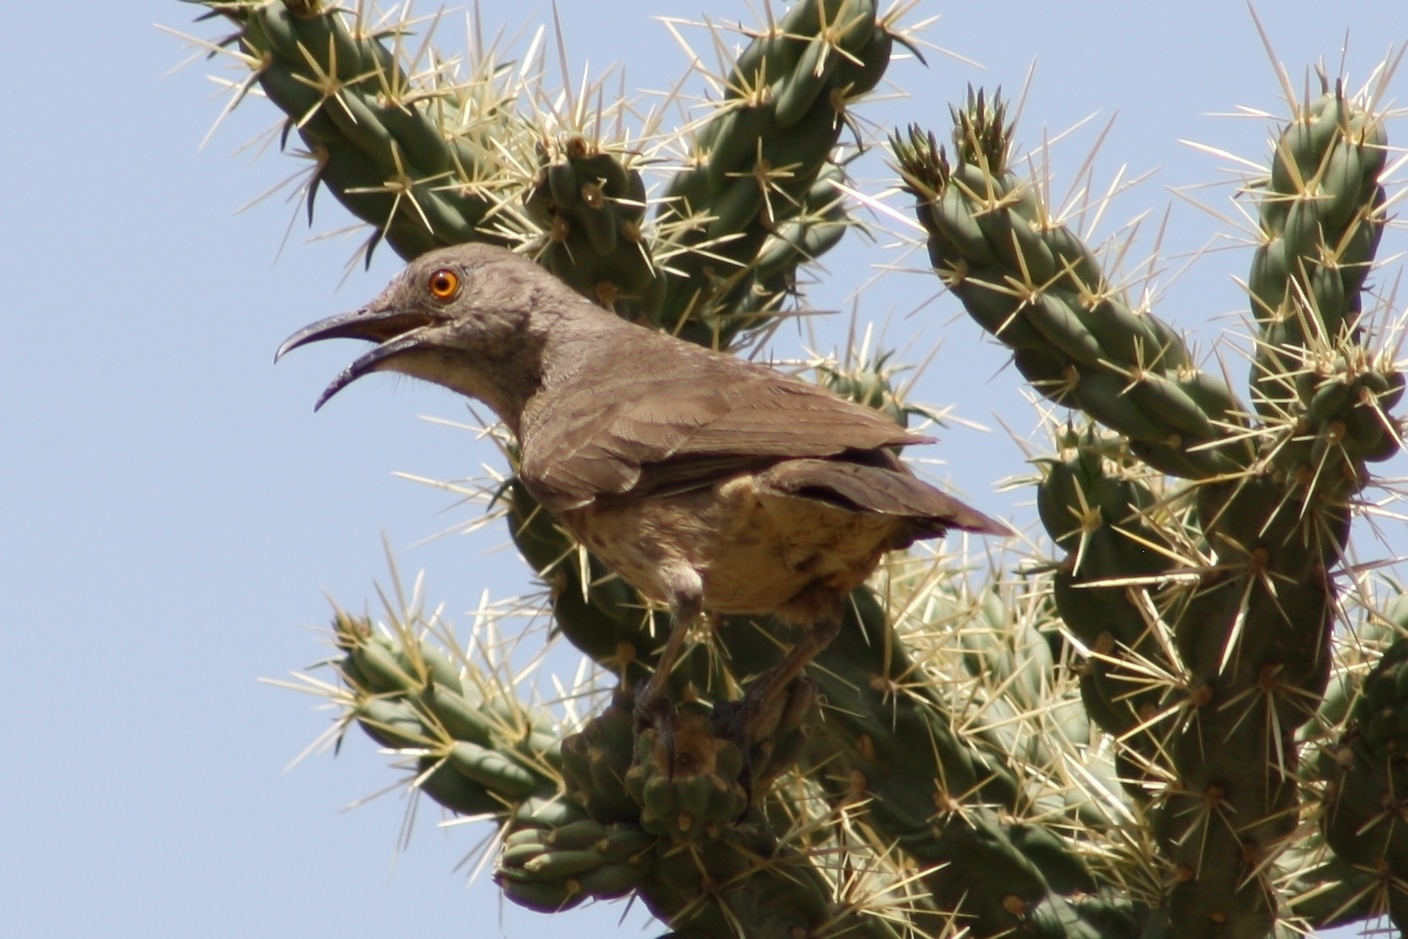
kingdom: Animalia
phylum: Chordata
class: Aves
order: Passeriformes
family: Mimidae
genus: Toxostoma
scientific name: Toxostoma curvirostre
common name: Curve-billed thrasher
